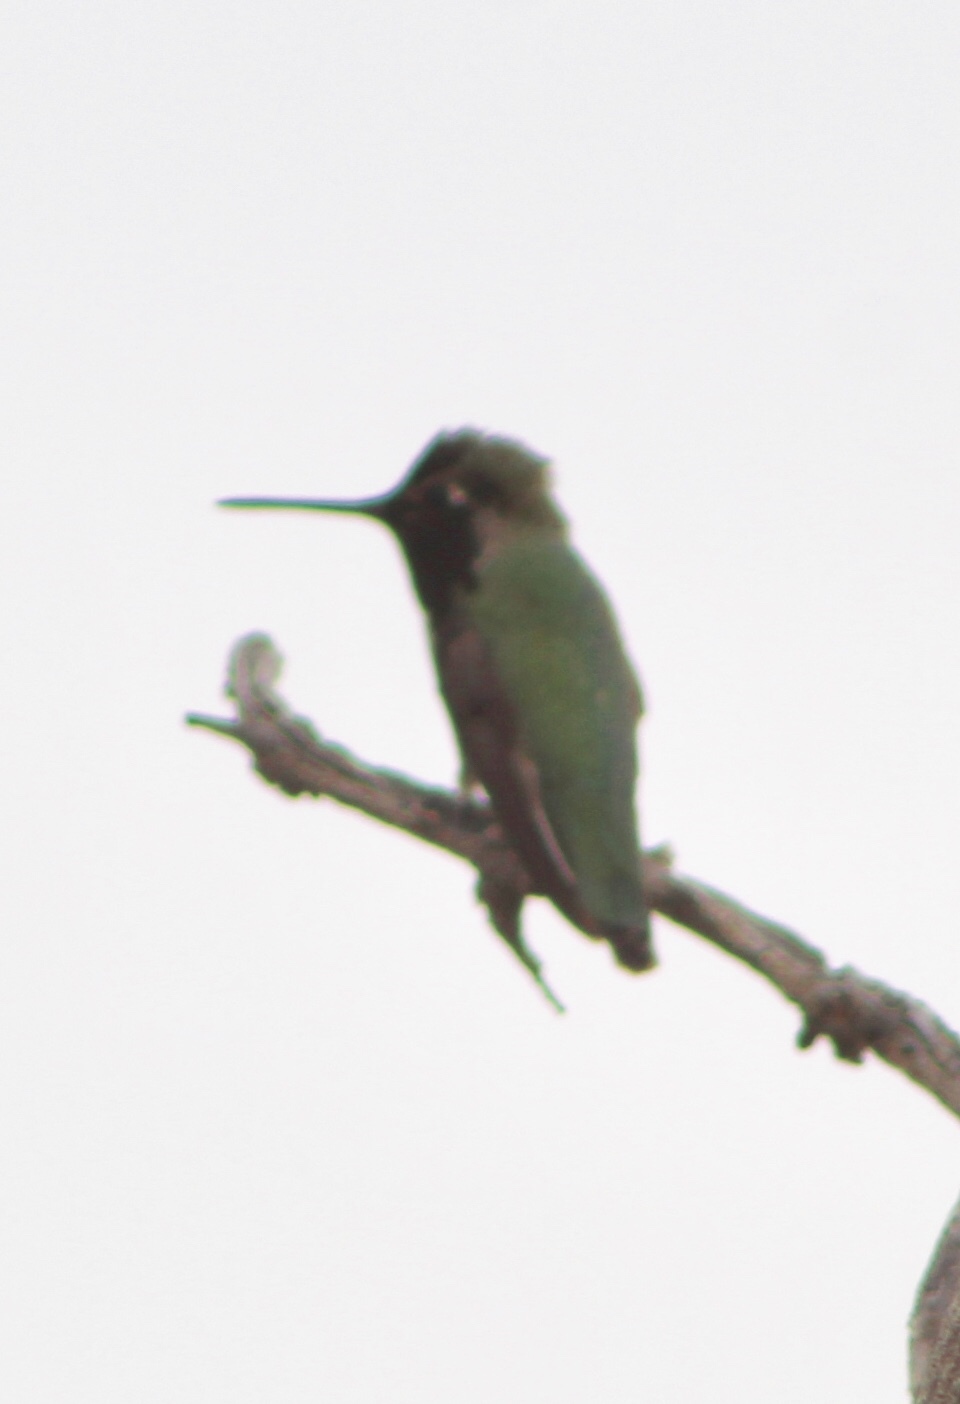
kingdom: Animalia
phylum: Chordata
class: Aves
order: Apodiformes
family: Trochilidae
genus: Calypte
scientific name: Calypte anna
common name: Anna's hummingbird
